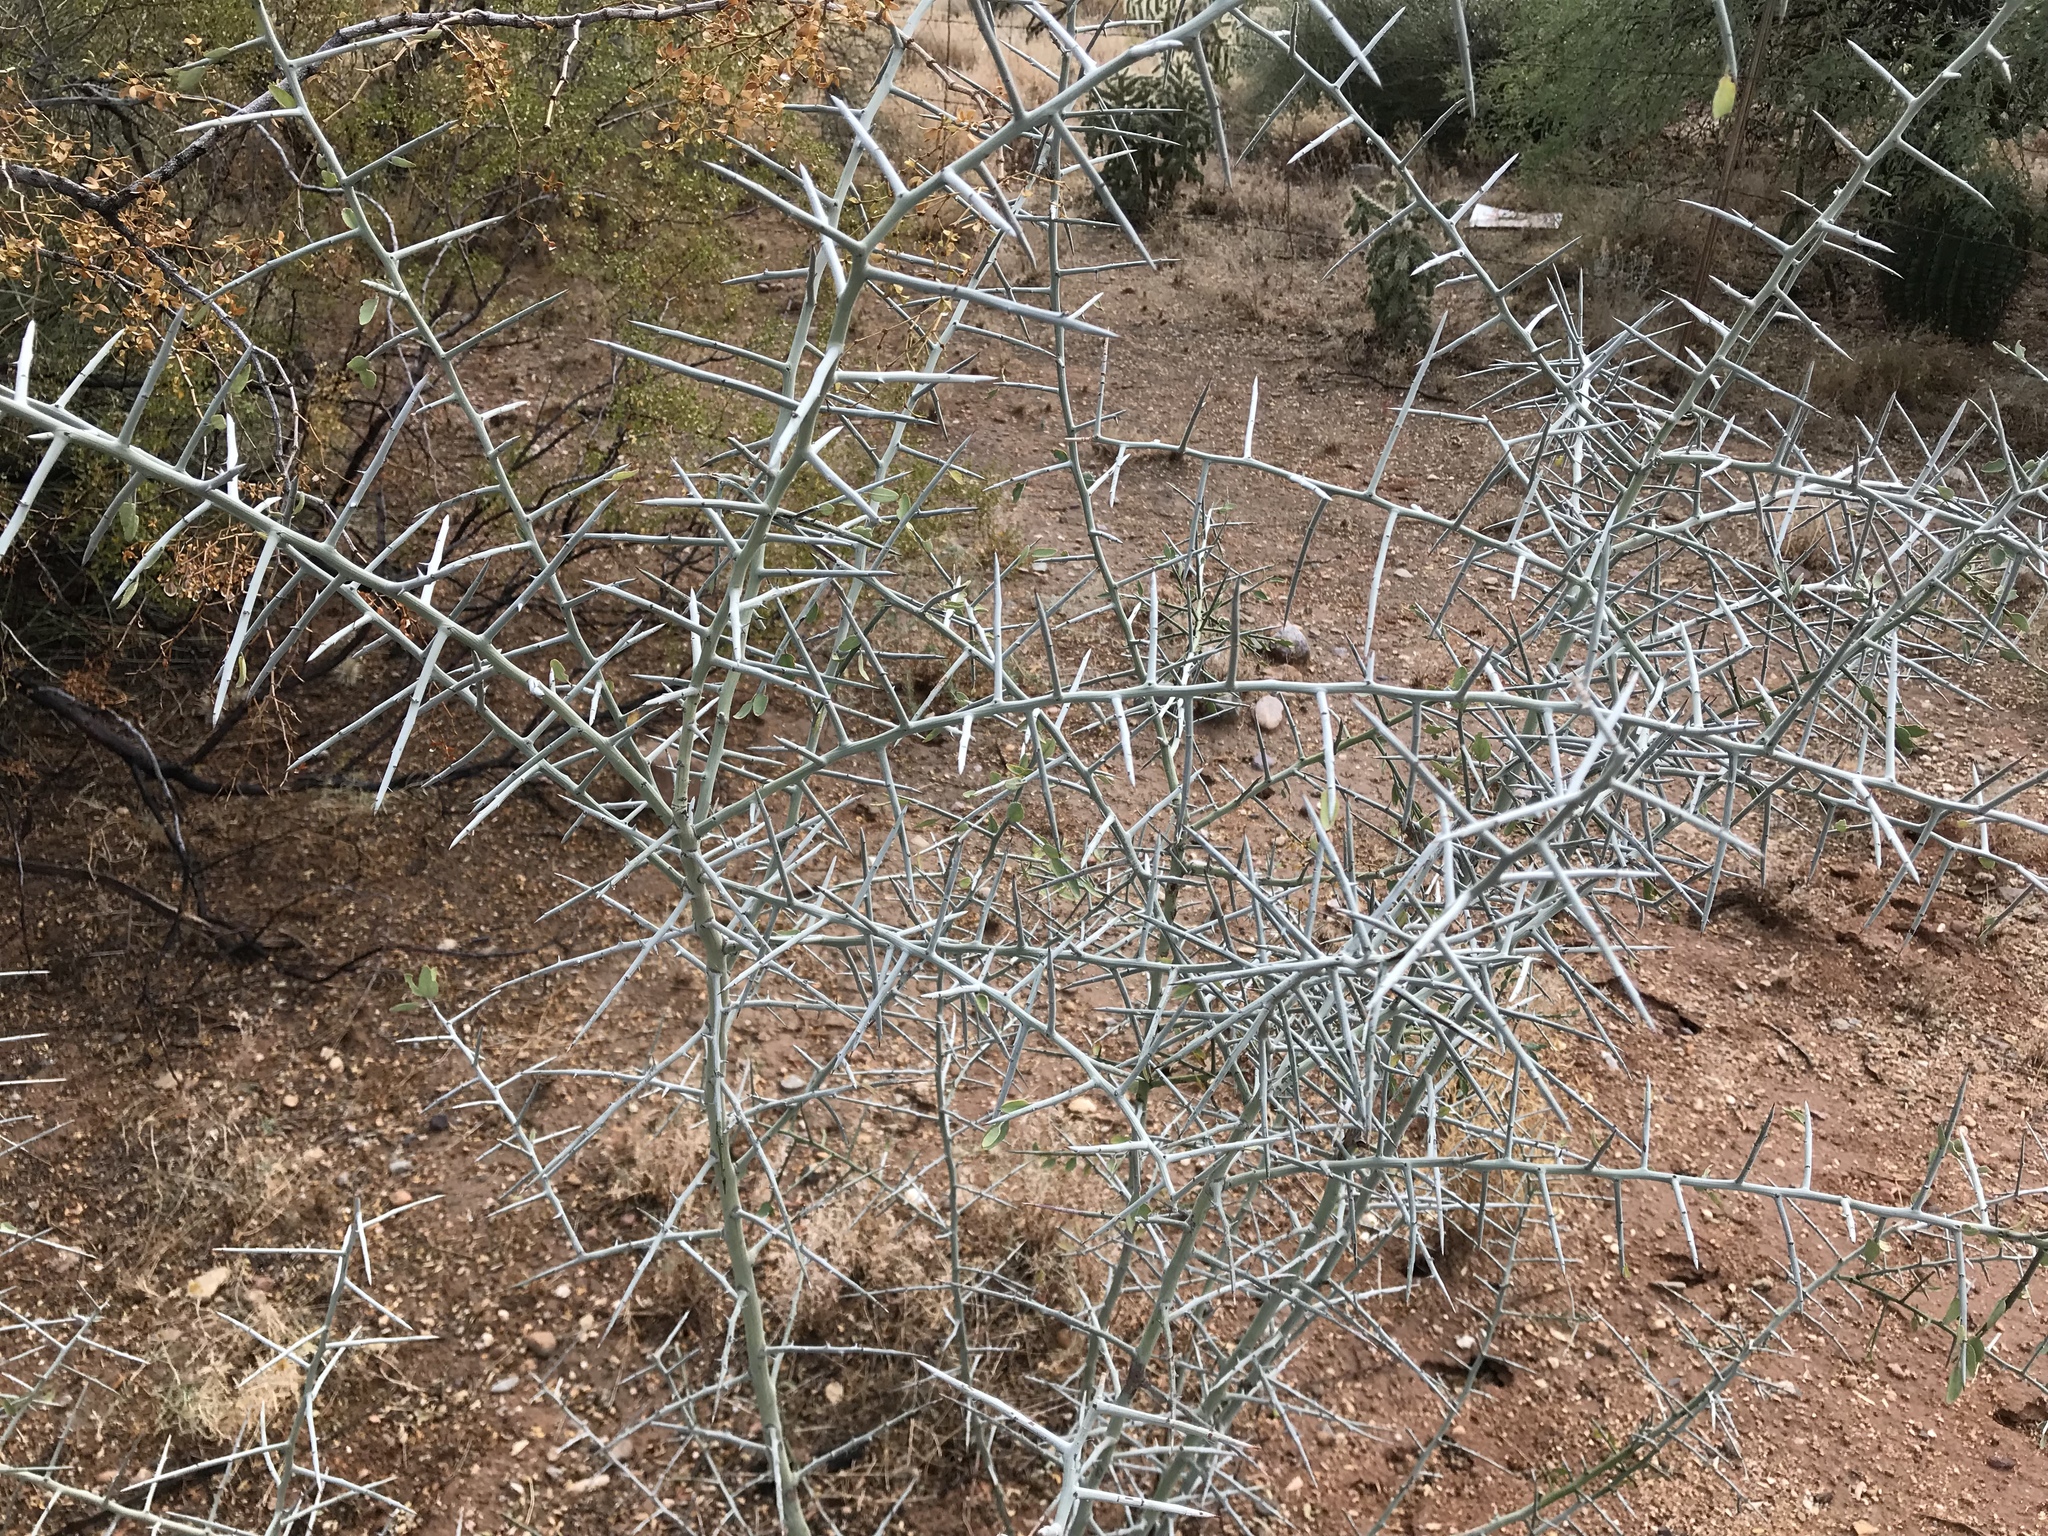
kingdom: Plantae
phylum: Tracheophyta
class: Magnoliopsida
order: Rosales
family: Rhamnaceae
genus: Sarcomphalus
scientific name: Sarcomphalus obtusifolius
